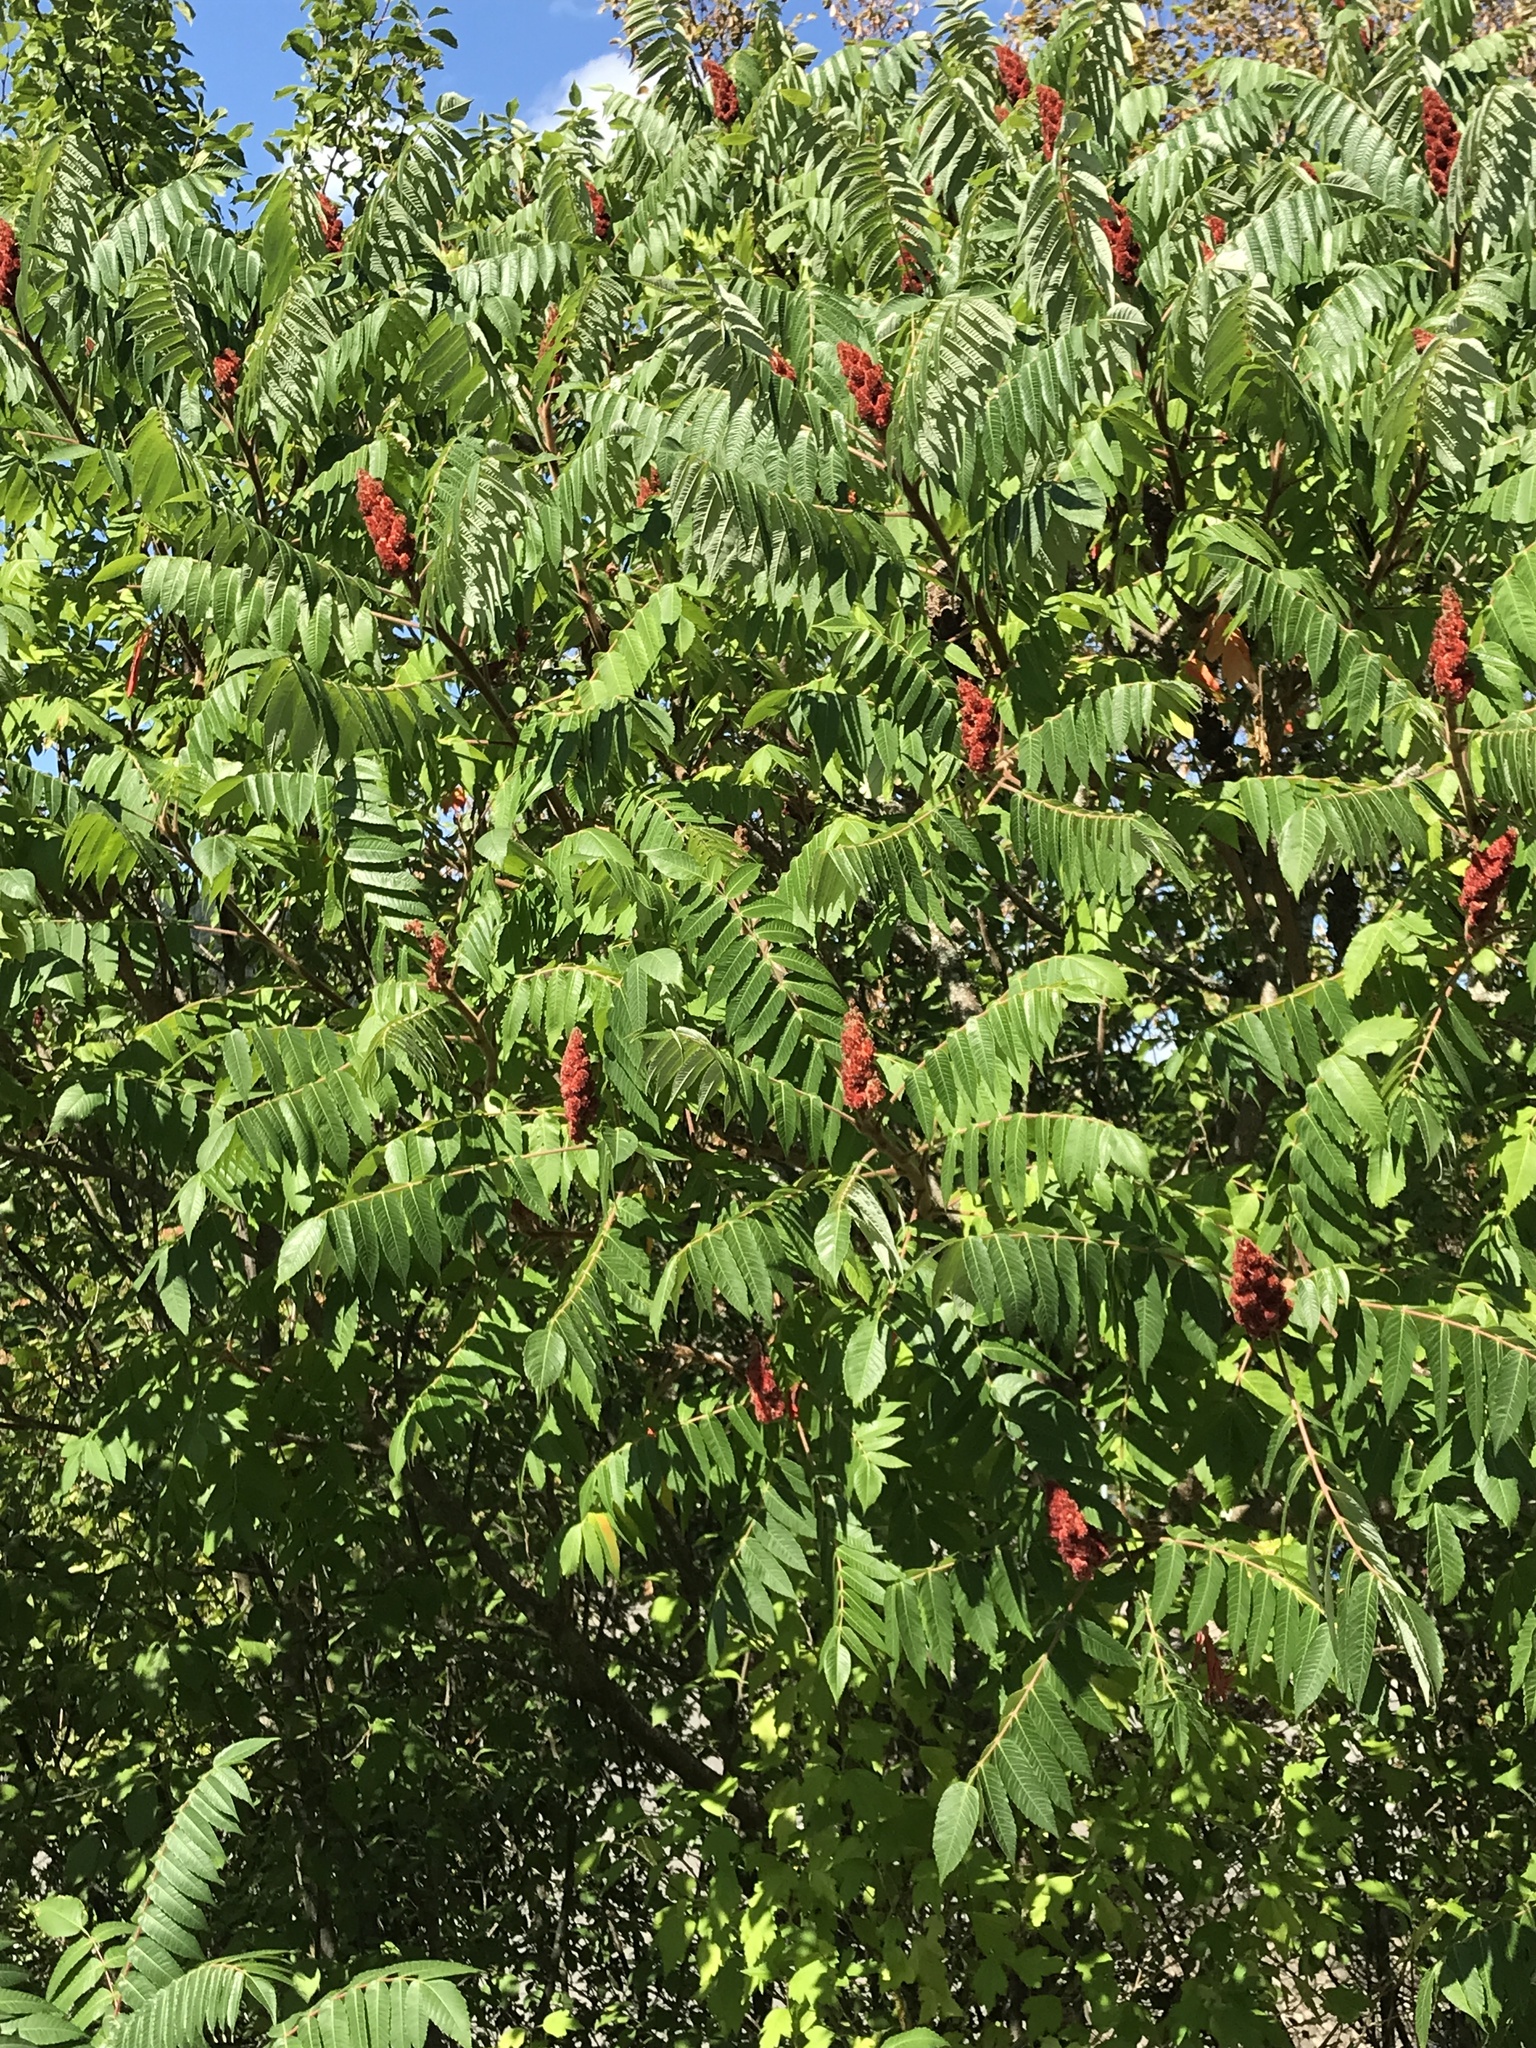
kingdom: Plantae
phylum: Tracheophyta
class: Magnoliopsida
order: Sapindales
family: Anacardiaceae
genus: Rhus
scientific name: Rhus typhina
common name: Staghorn sumac
